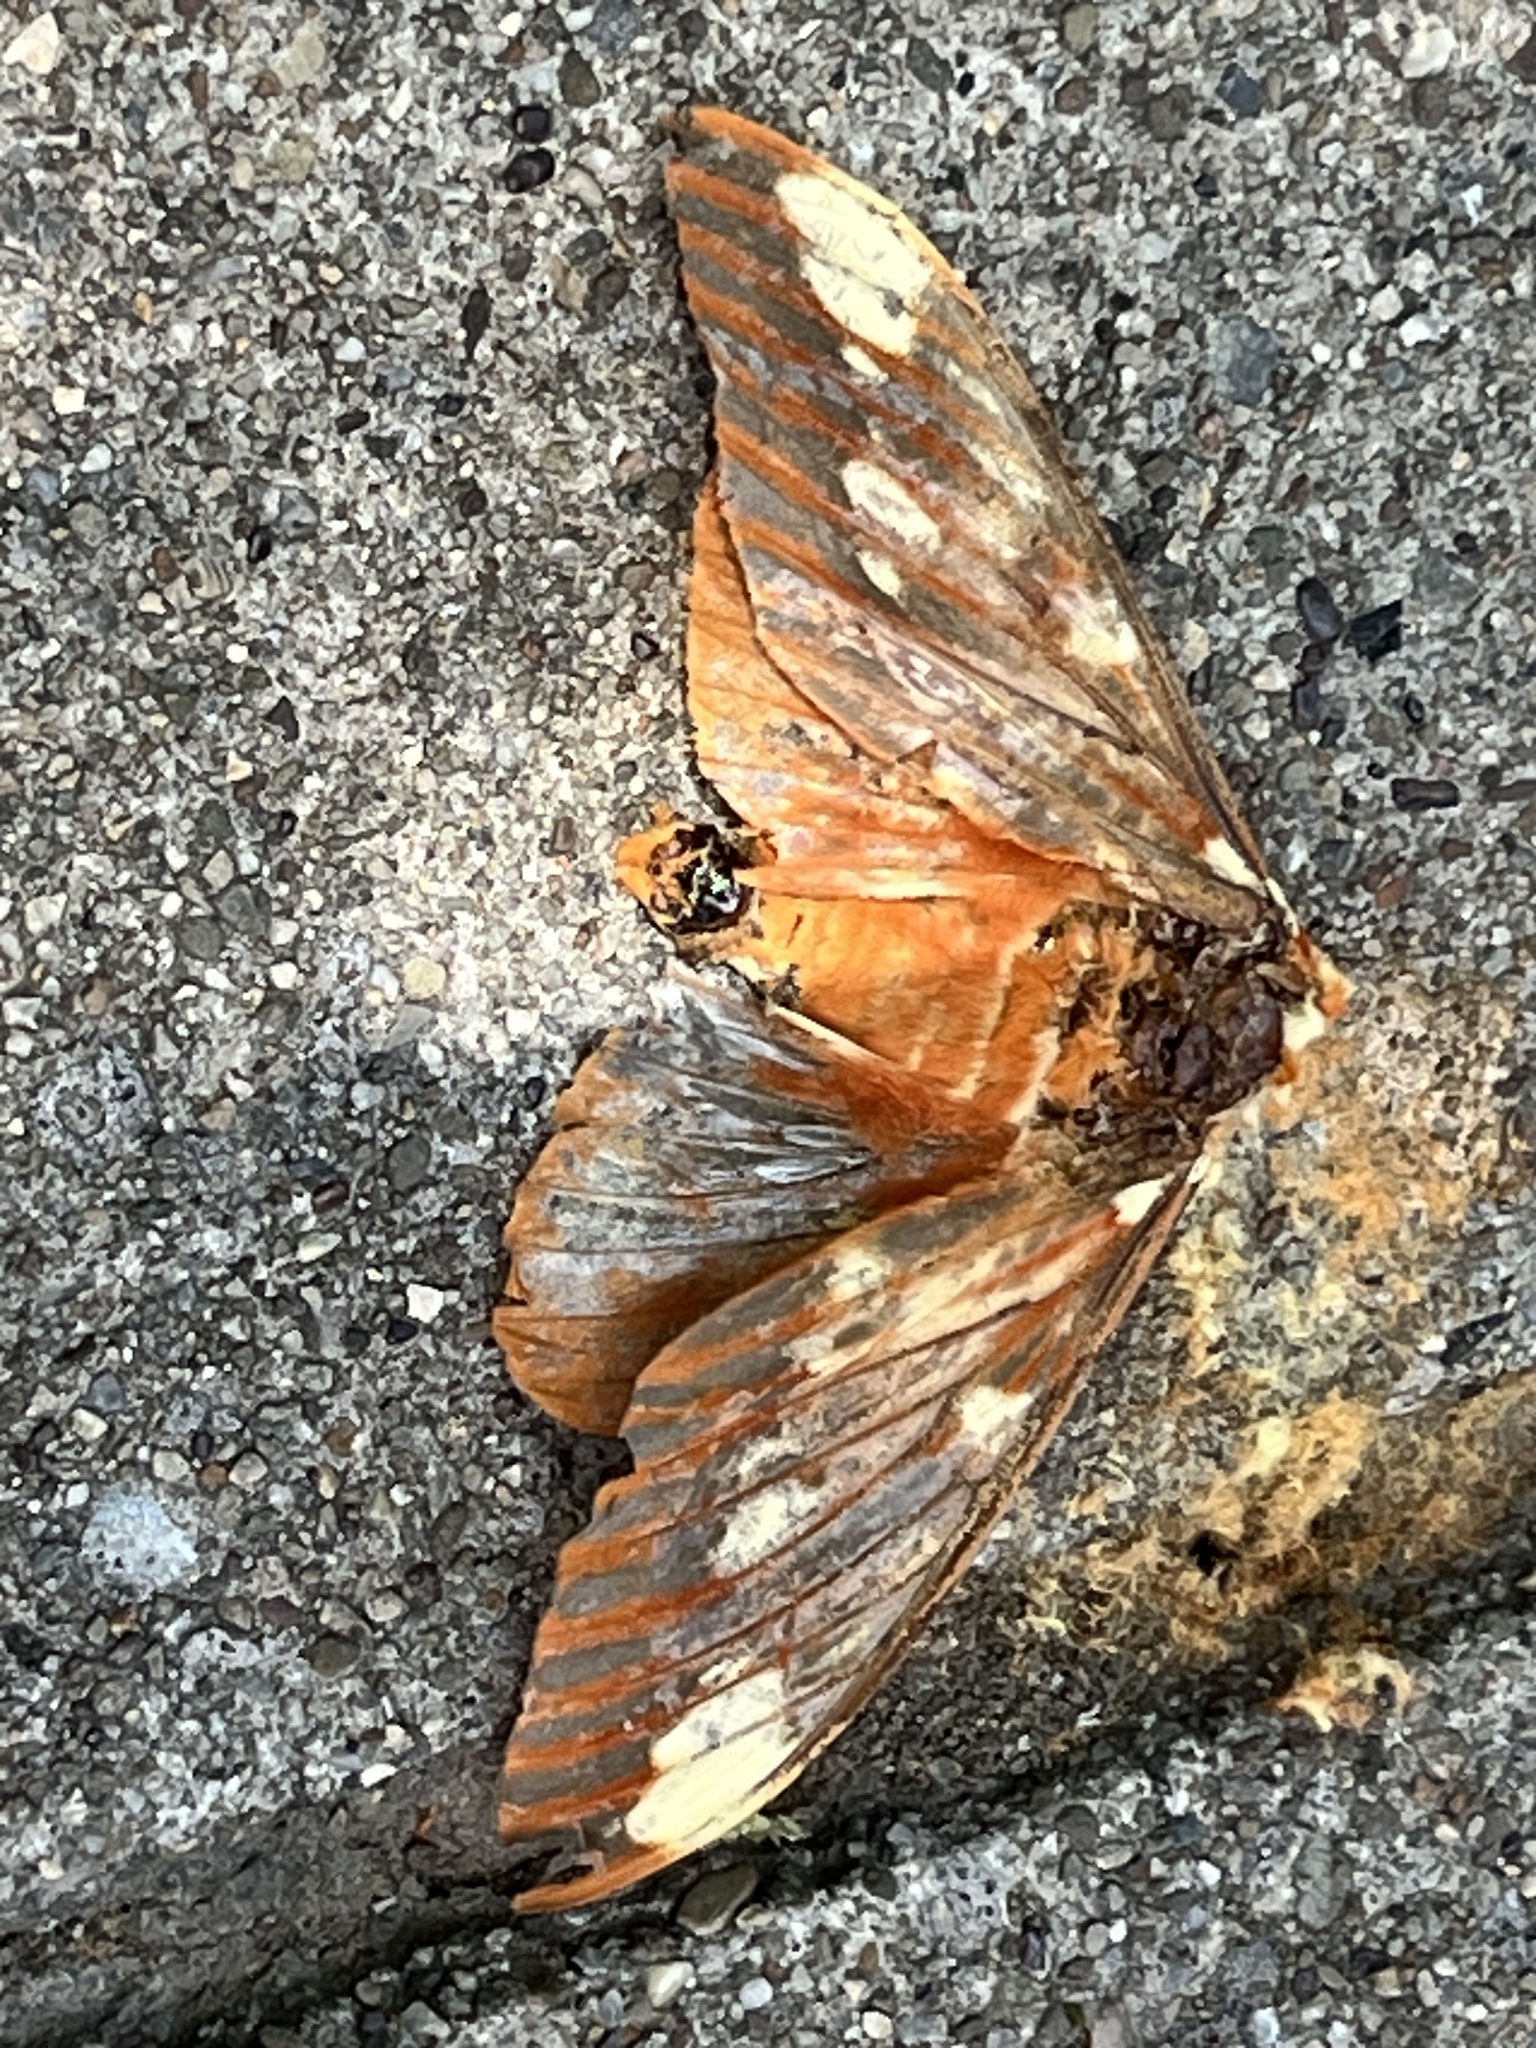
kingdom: Animalia
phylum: Arthropoda
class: Insecta
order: Lepidoptera
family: Saturniidae
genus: Citheronia
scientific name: Citheronia regalis
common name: Hickory horned devil
